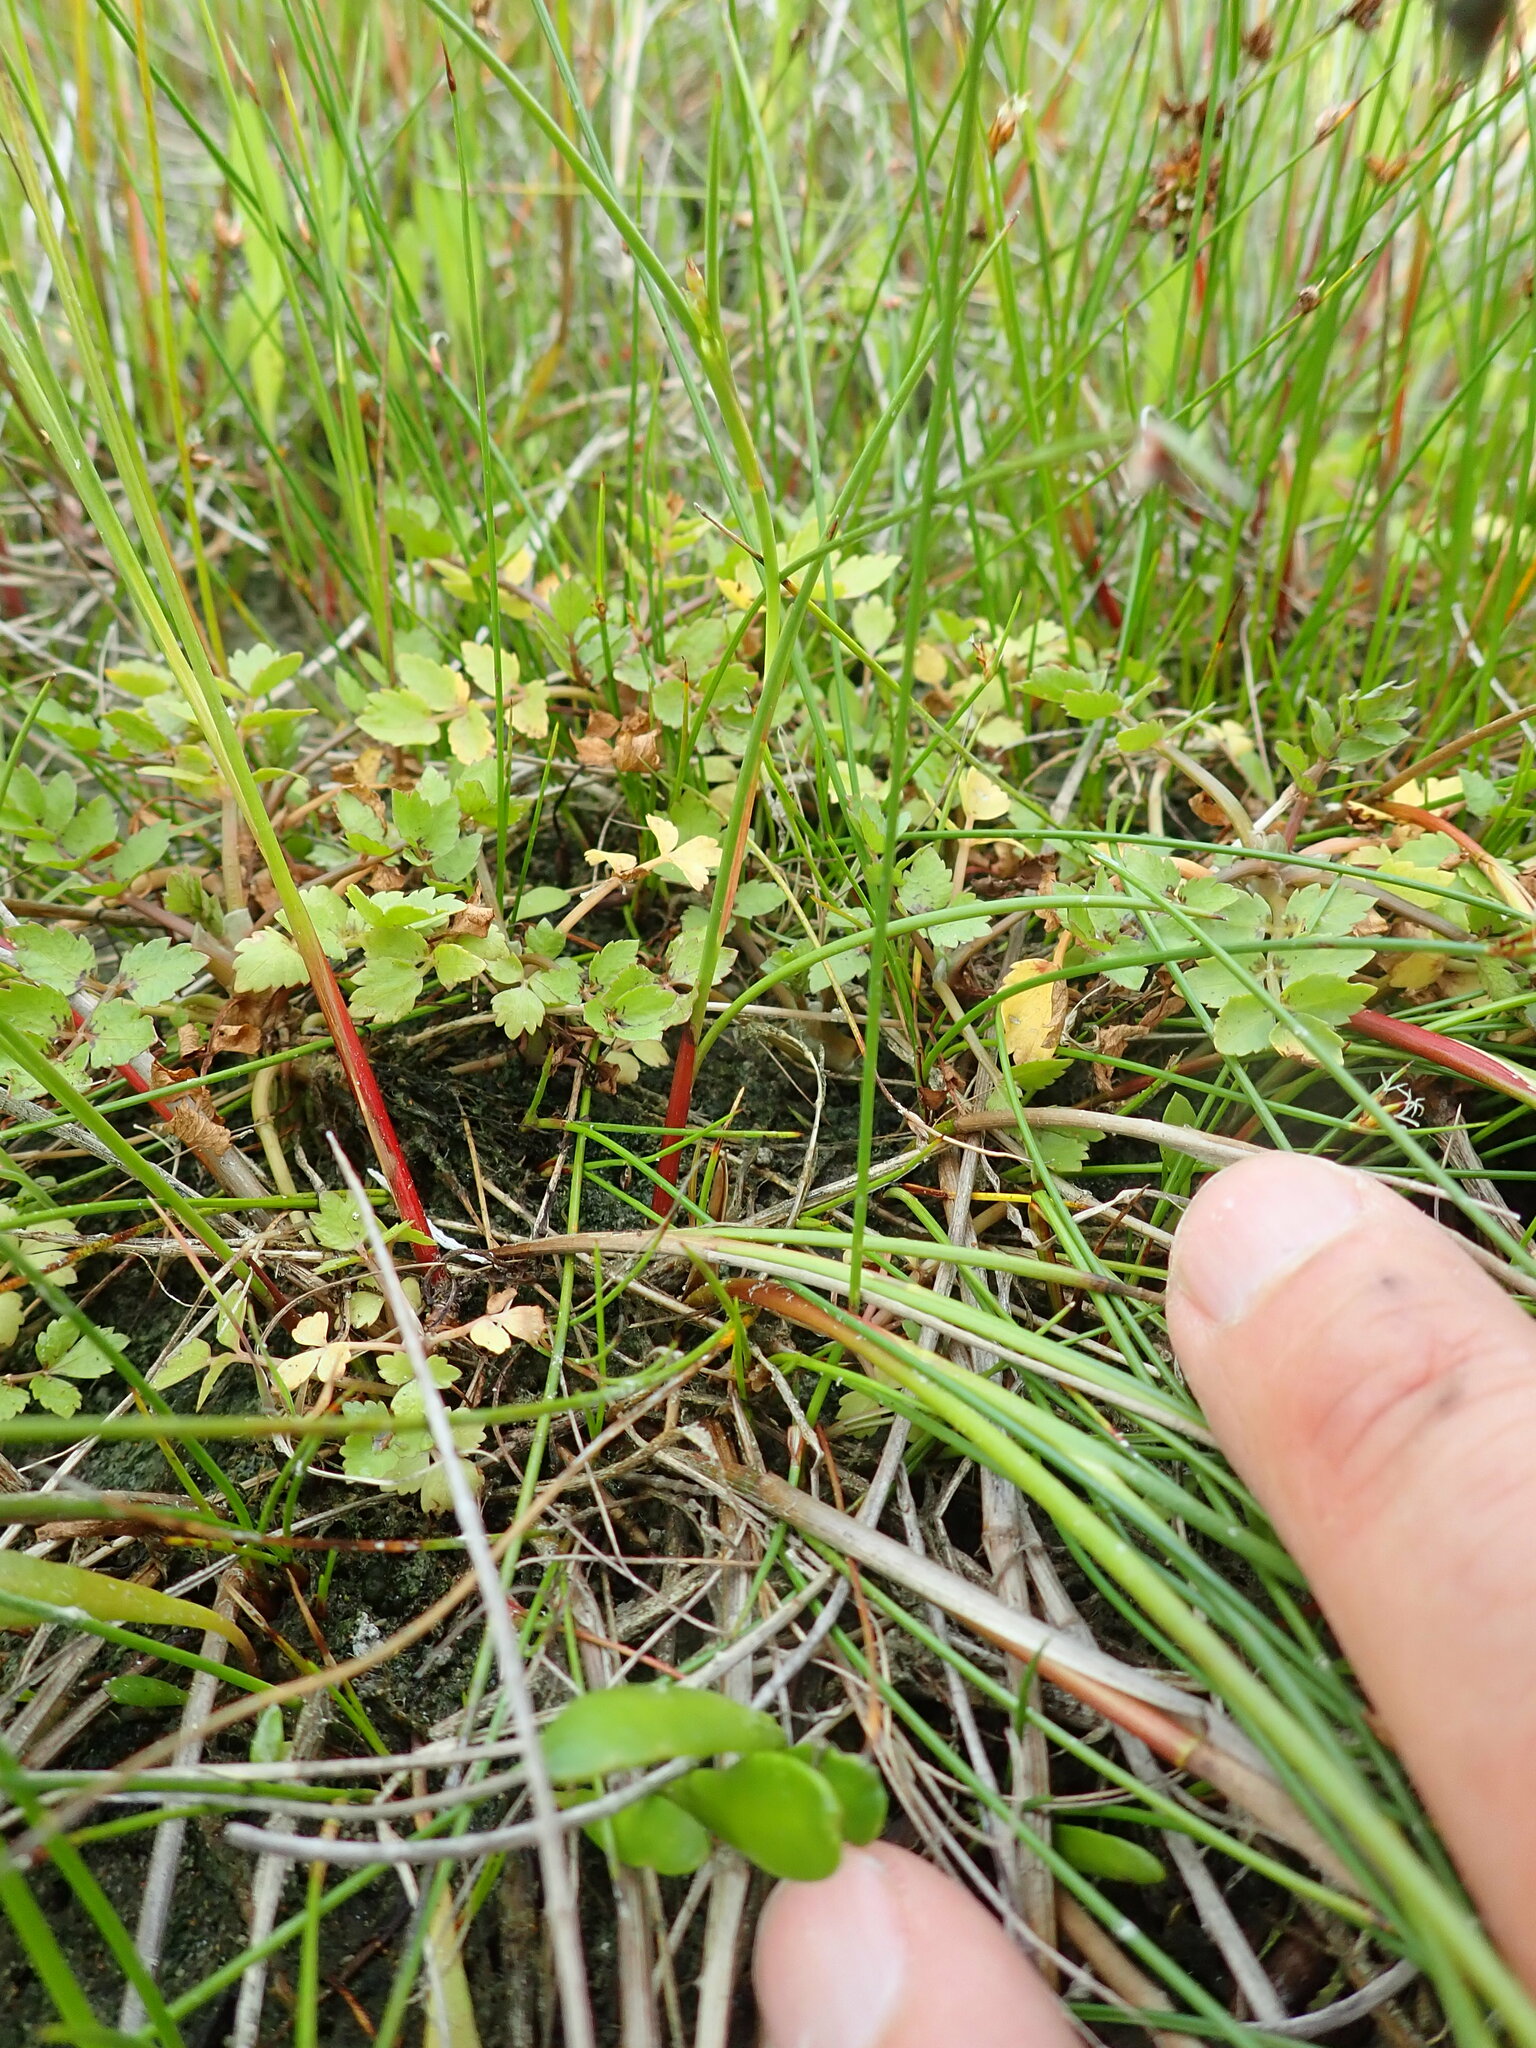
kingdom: Plantae
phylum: Tracheophyta
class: Magnoliopsida
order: Apiales
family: Apiaceae
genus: Apium
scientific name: Apium prostratum
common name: Prostrate marshwort
